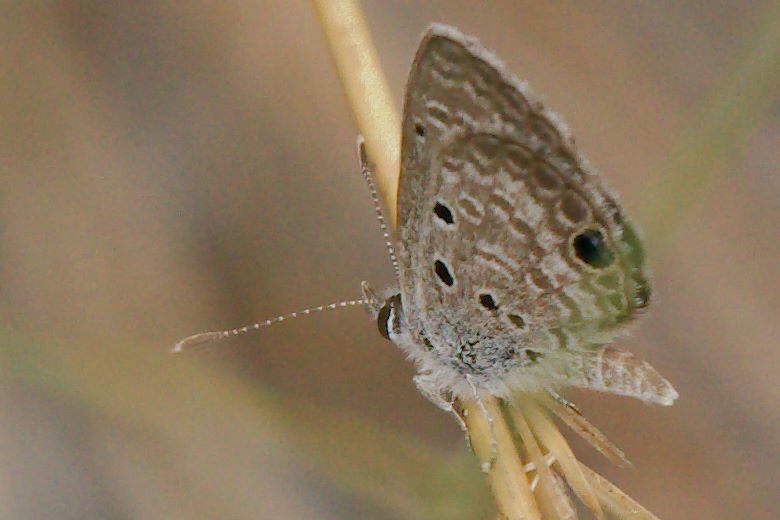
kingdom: Animalia
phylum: Arthropoda
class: Insecta
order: Lepidoptera
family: Lycaenidae
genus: Hemiargus
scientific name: Hemiargus ceraunus
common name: Ceraunus blue
